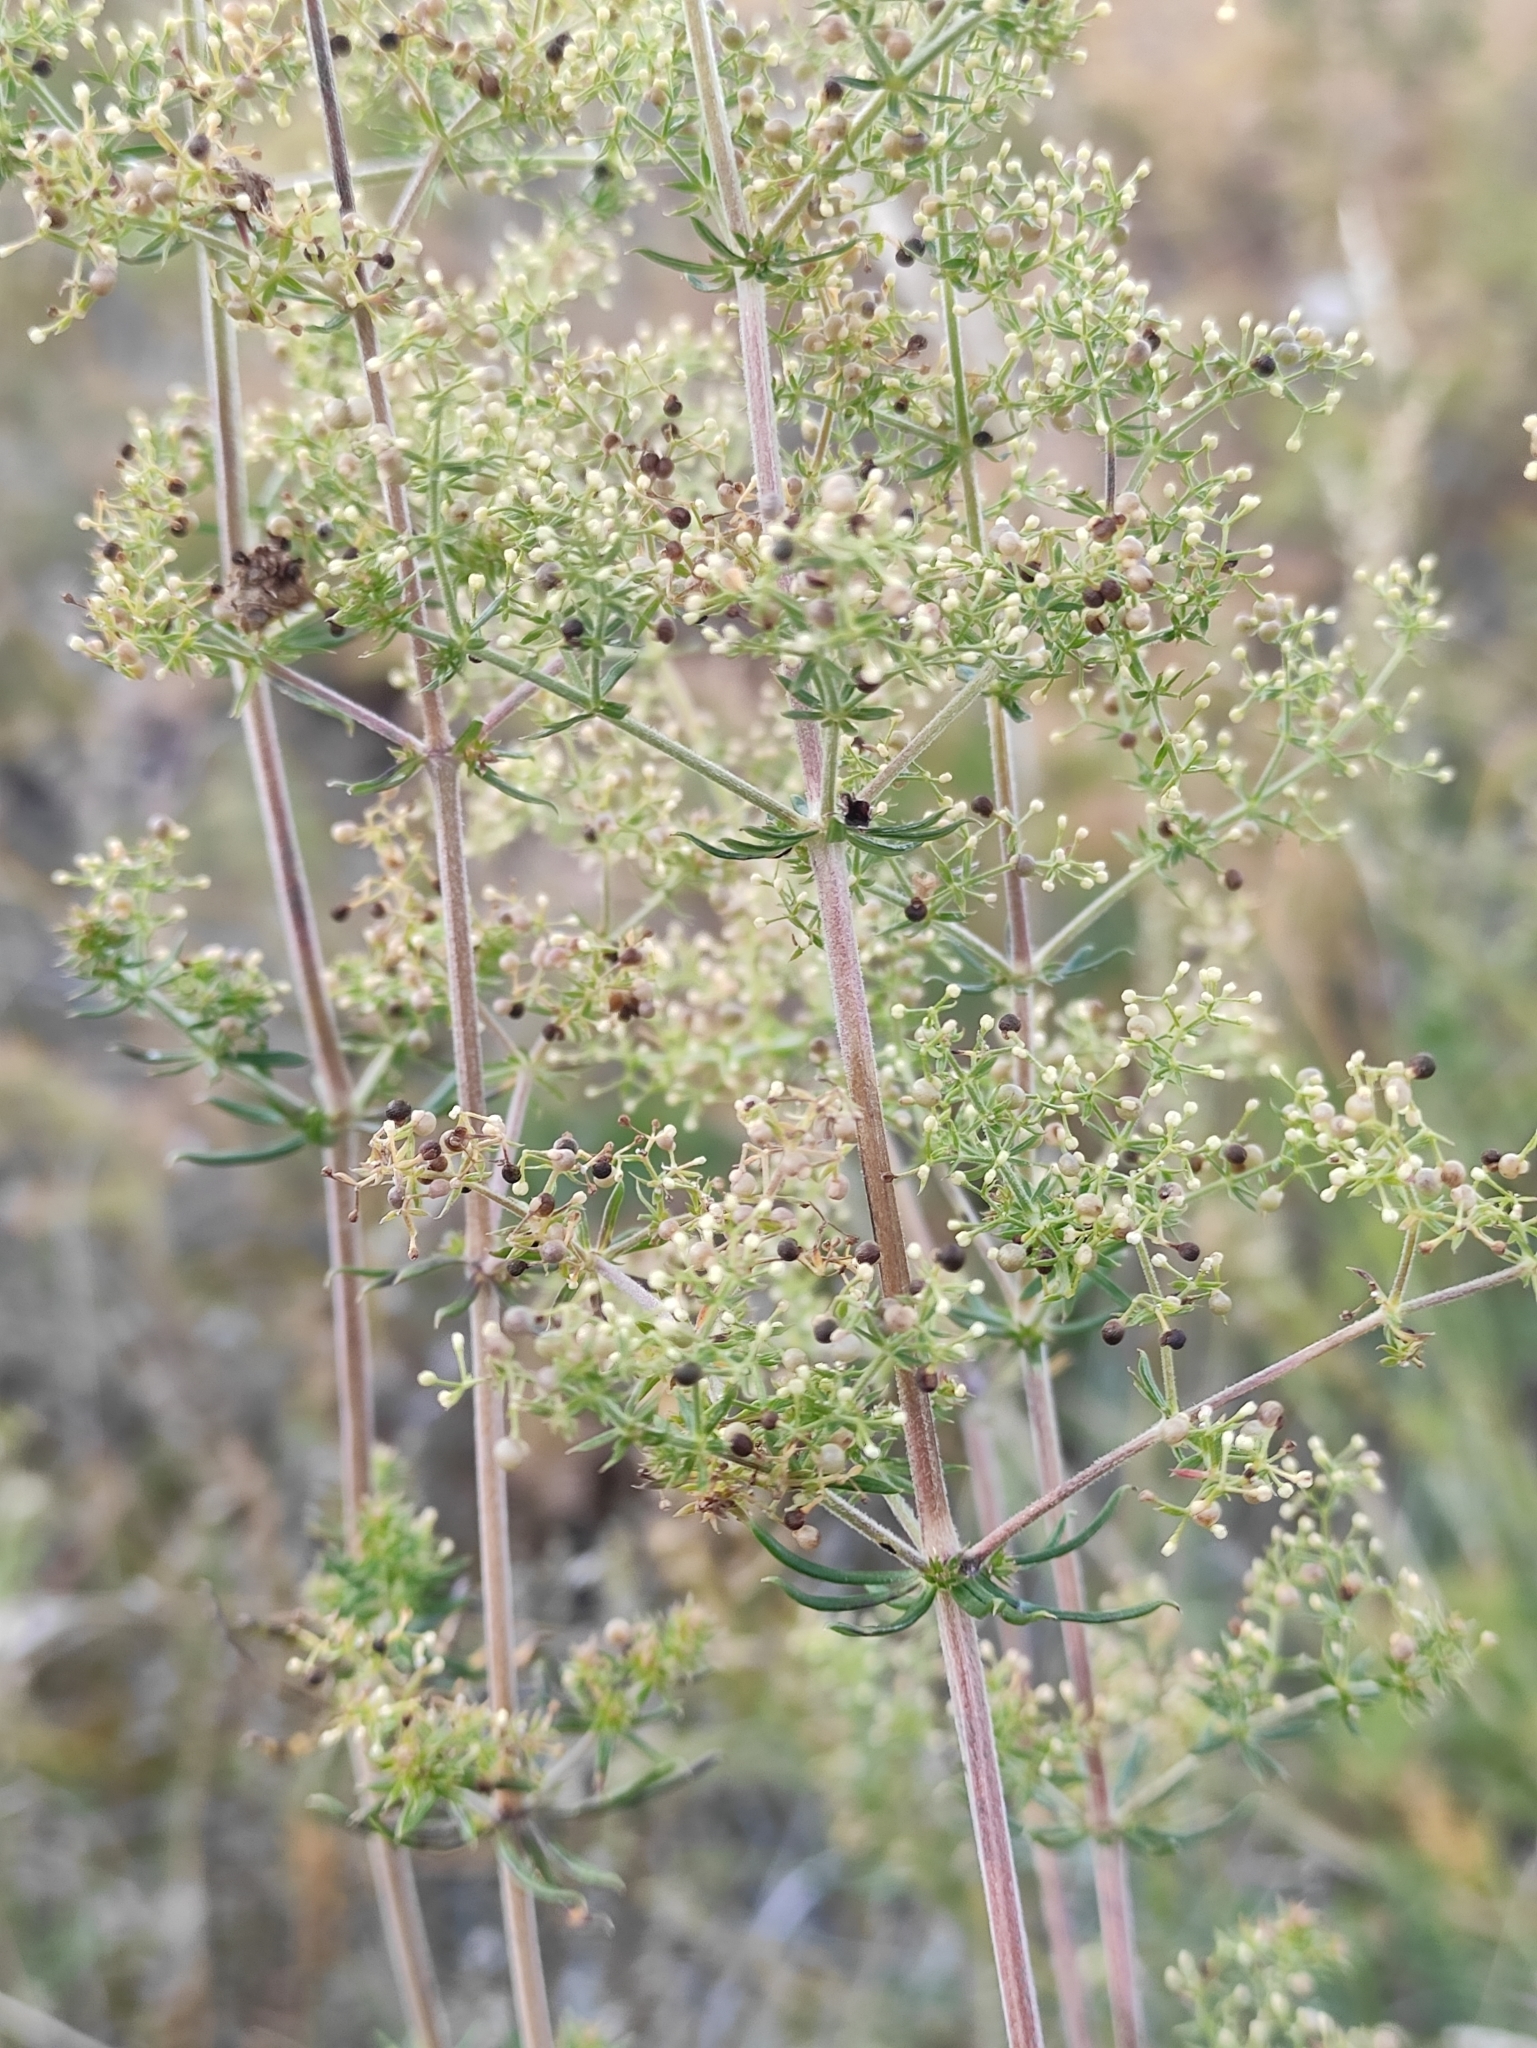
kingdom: Plantae
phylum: Tracheophyta
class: Magnoliopsida
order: Gentianales
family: Rubiaceae
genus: Galium
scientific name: Galium verum
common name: Lady's bedstraw
